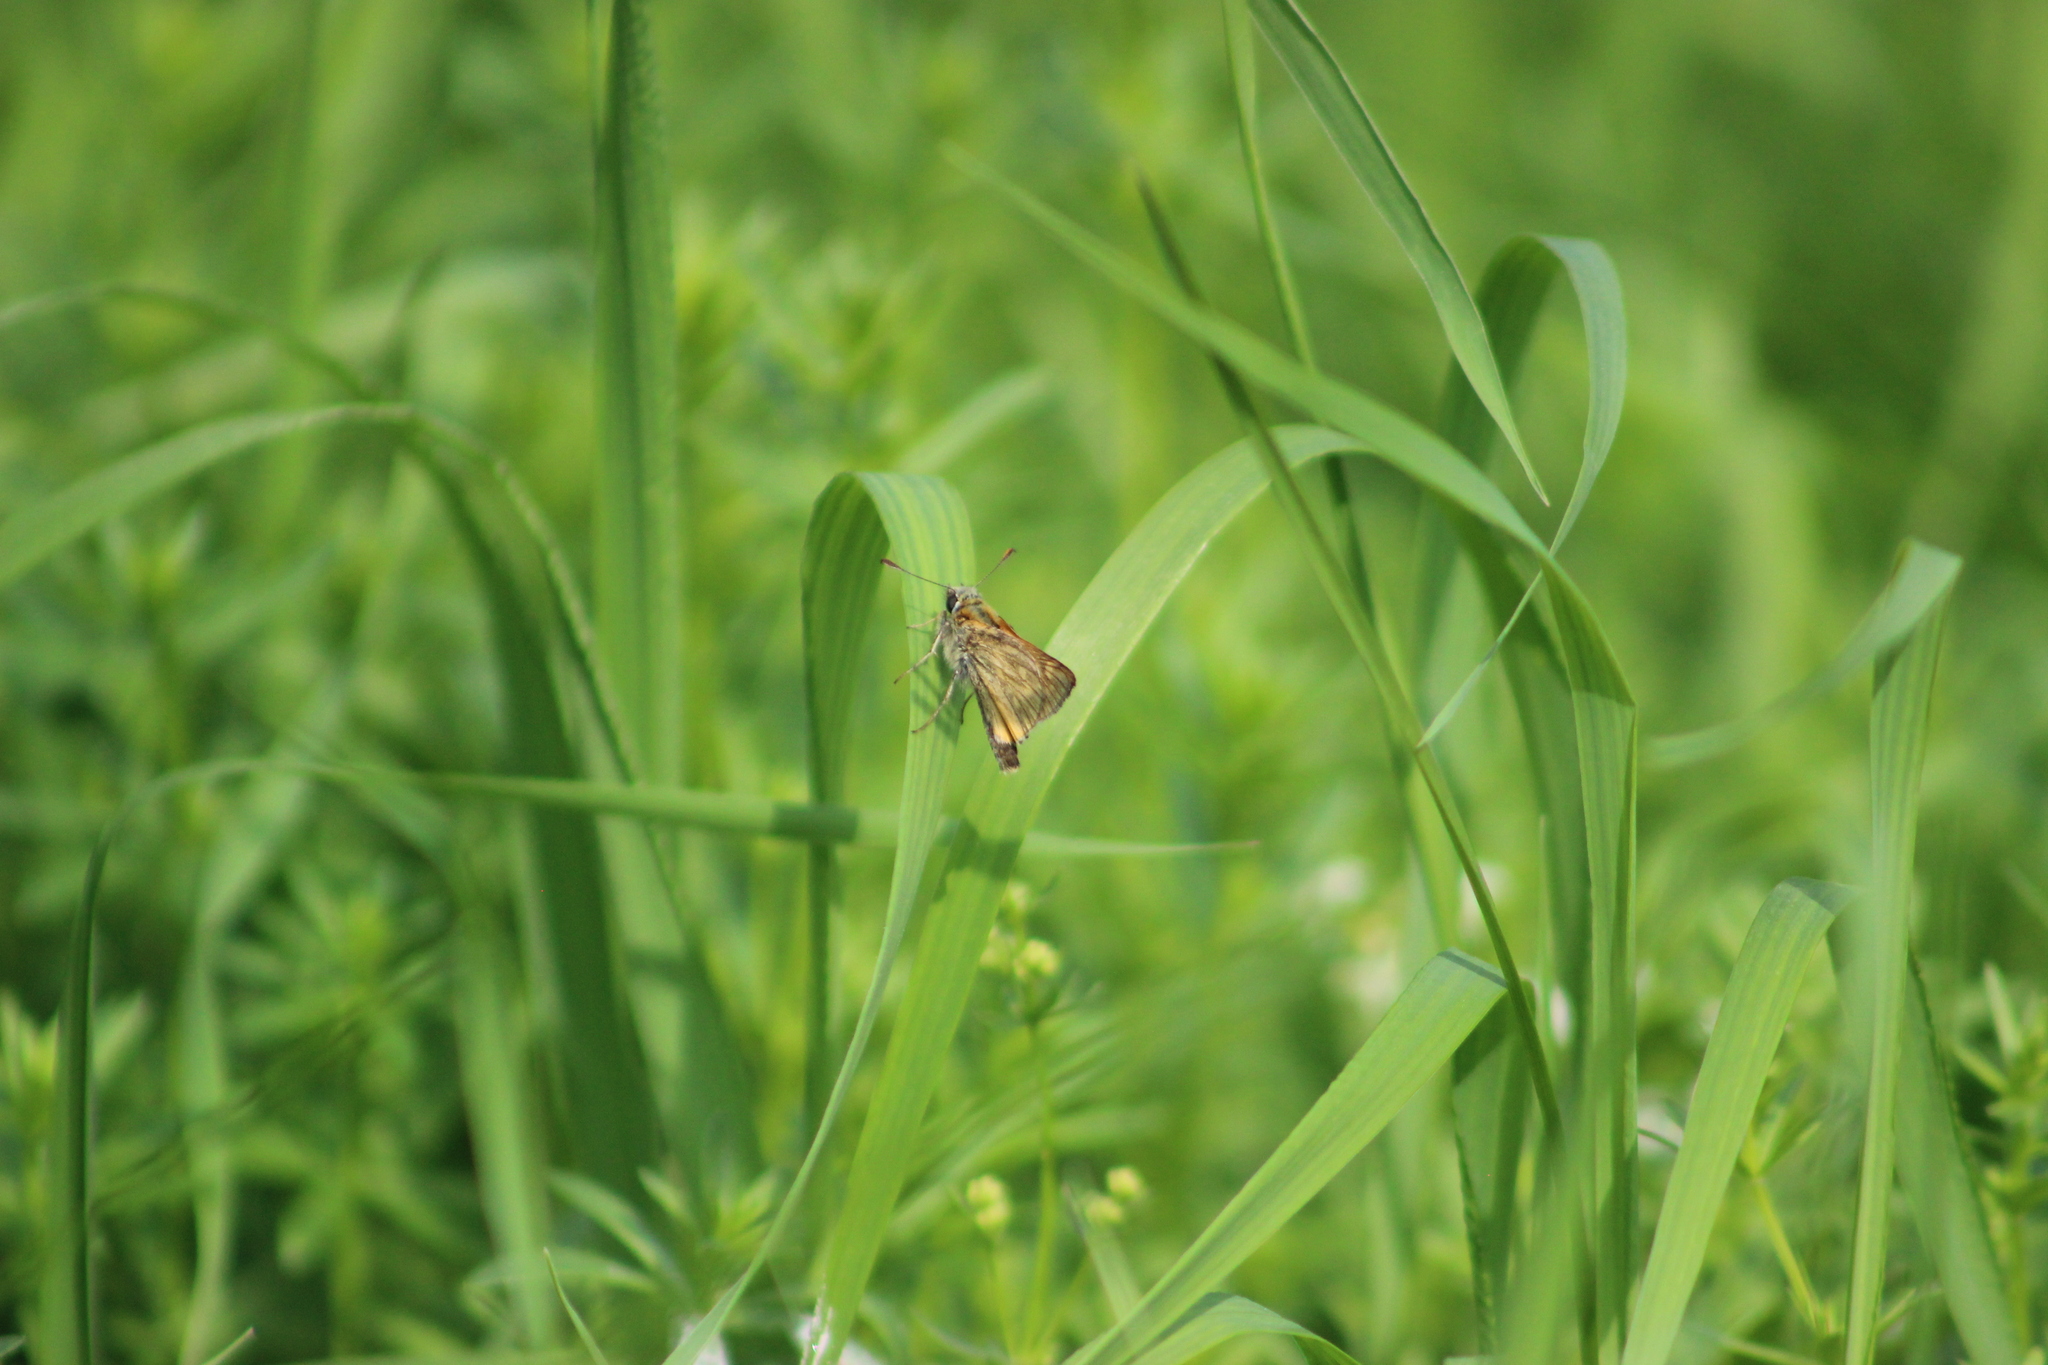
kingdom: Animalia
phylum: Arthropoda
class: Insecta
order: Lepidoptera
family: Hesperiidae
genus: Ochlodes
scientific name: Ochlodes venata
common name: Large skipper
